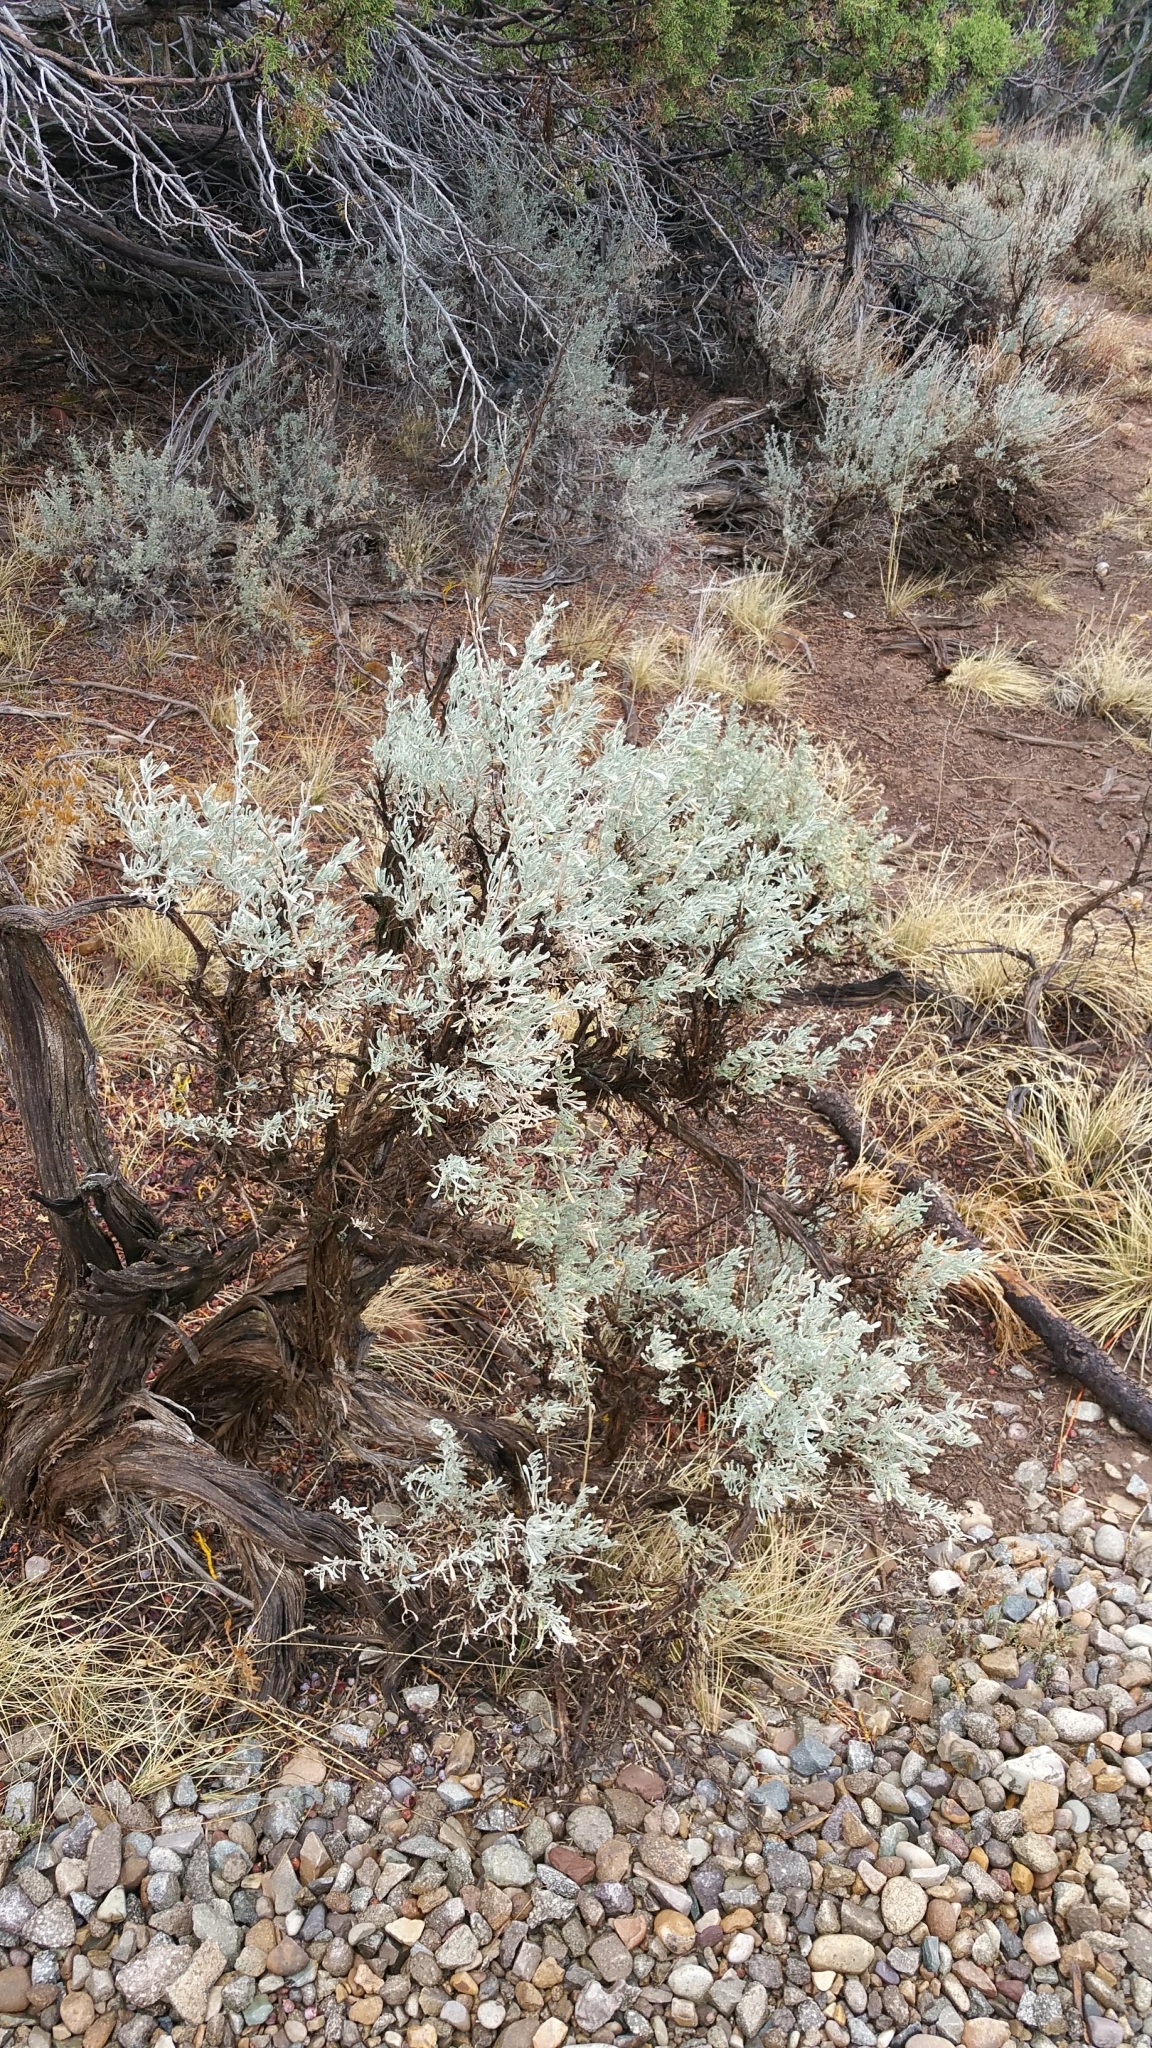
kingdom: Plantae
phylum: Tracheophyta
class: Magnoliopsida
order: Asterales
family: Asteraceae
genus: Artemisia
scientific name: Artemisia tridentata
